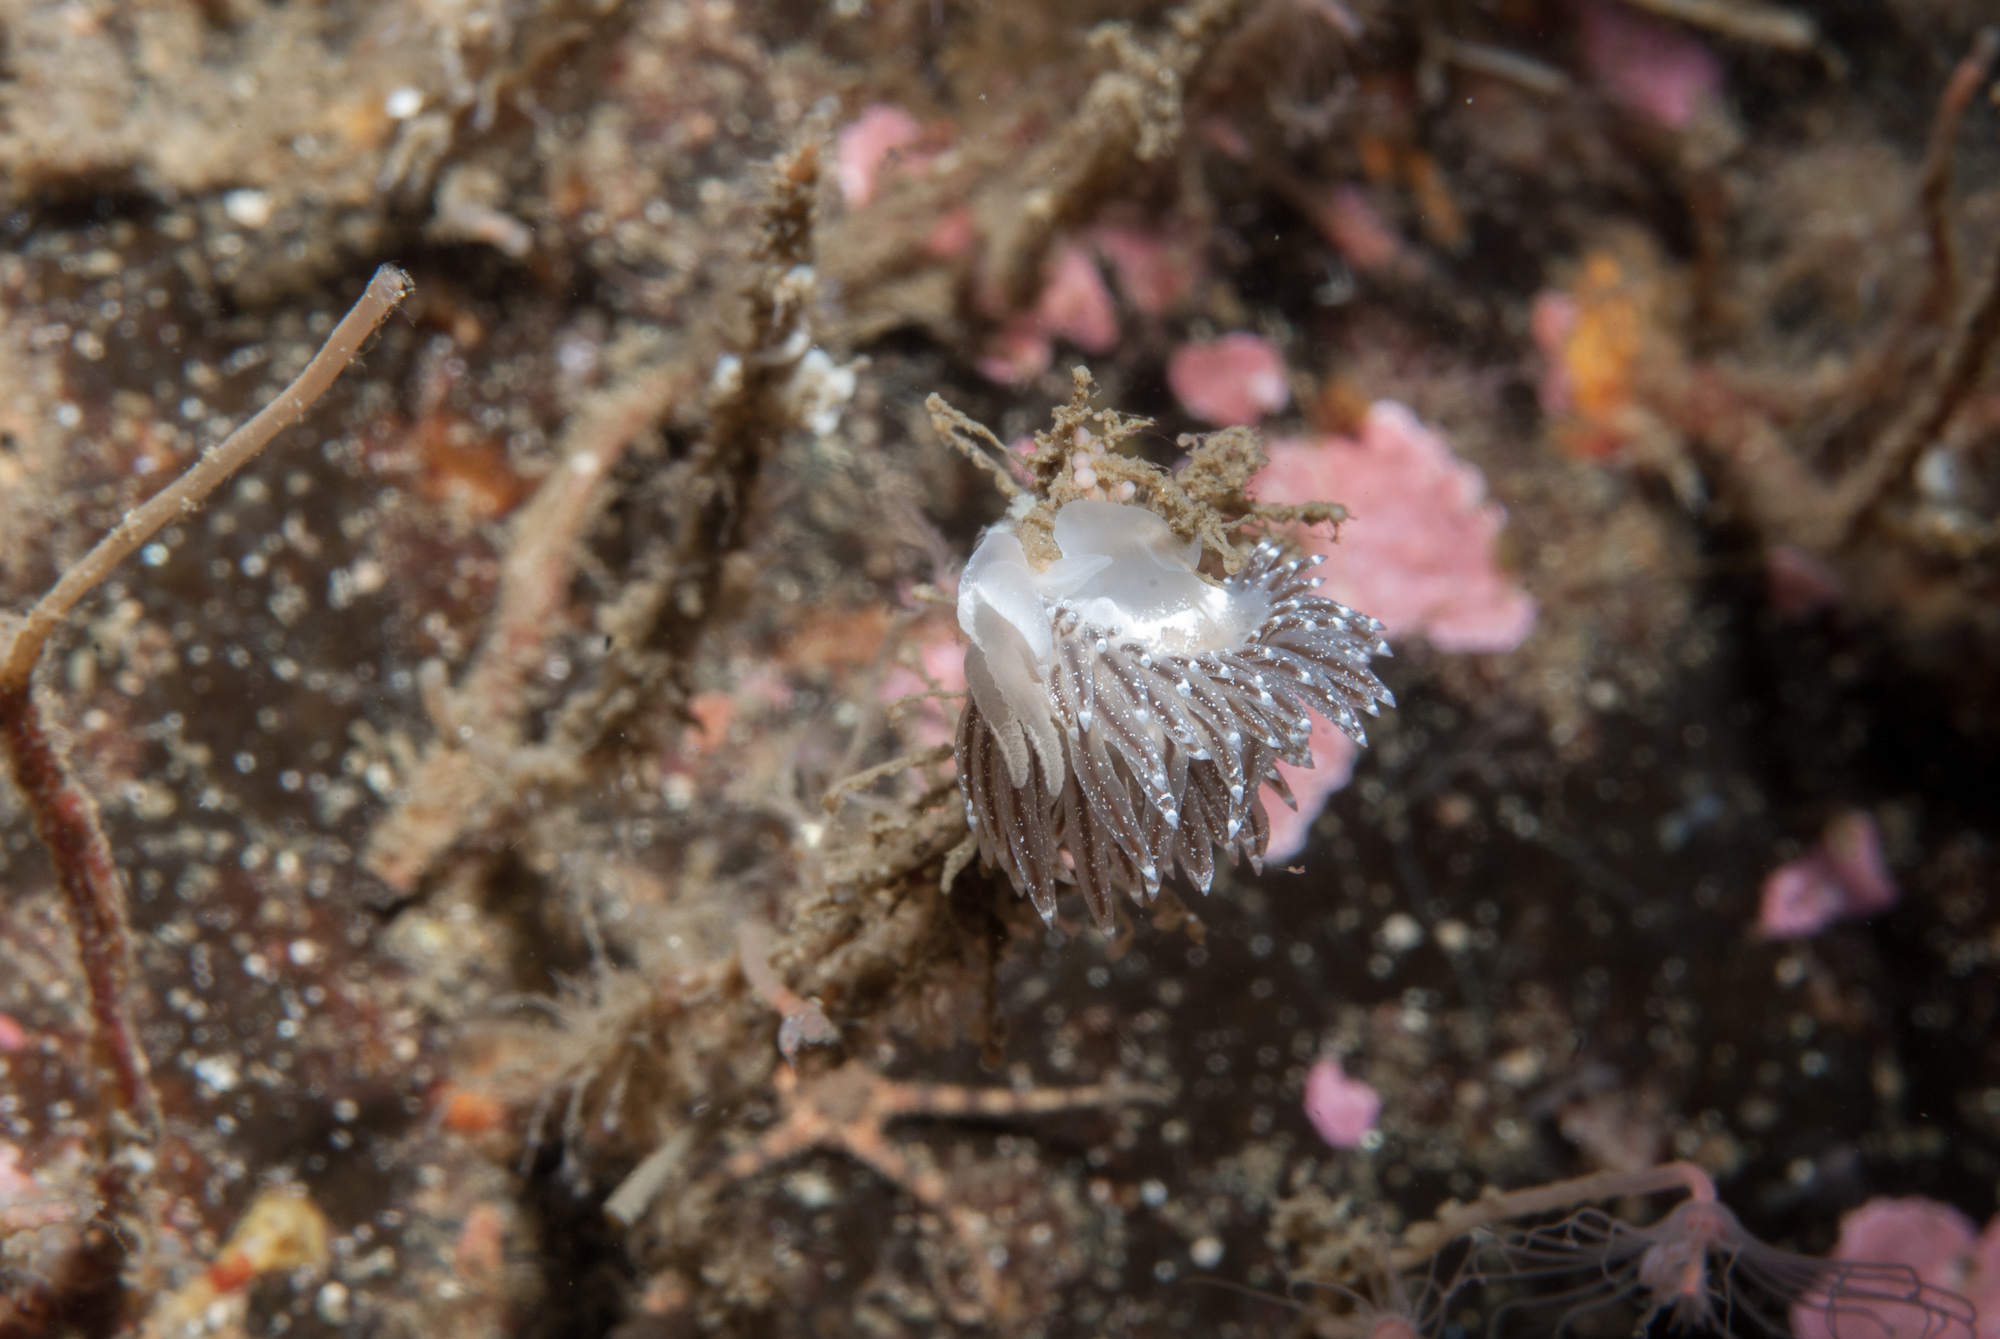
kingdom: Animalia
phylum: Mollusca
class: Gastropoda
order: Nudibranchia
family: Coryphellidae
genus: Coryphella
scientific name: Coryphella orjani
